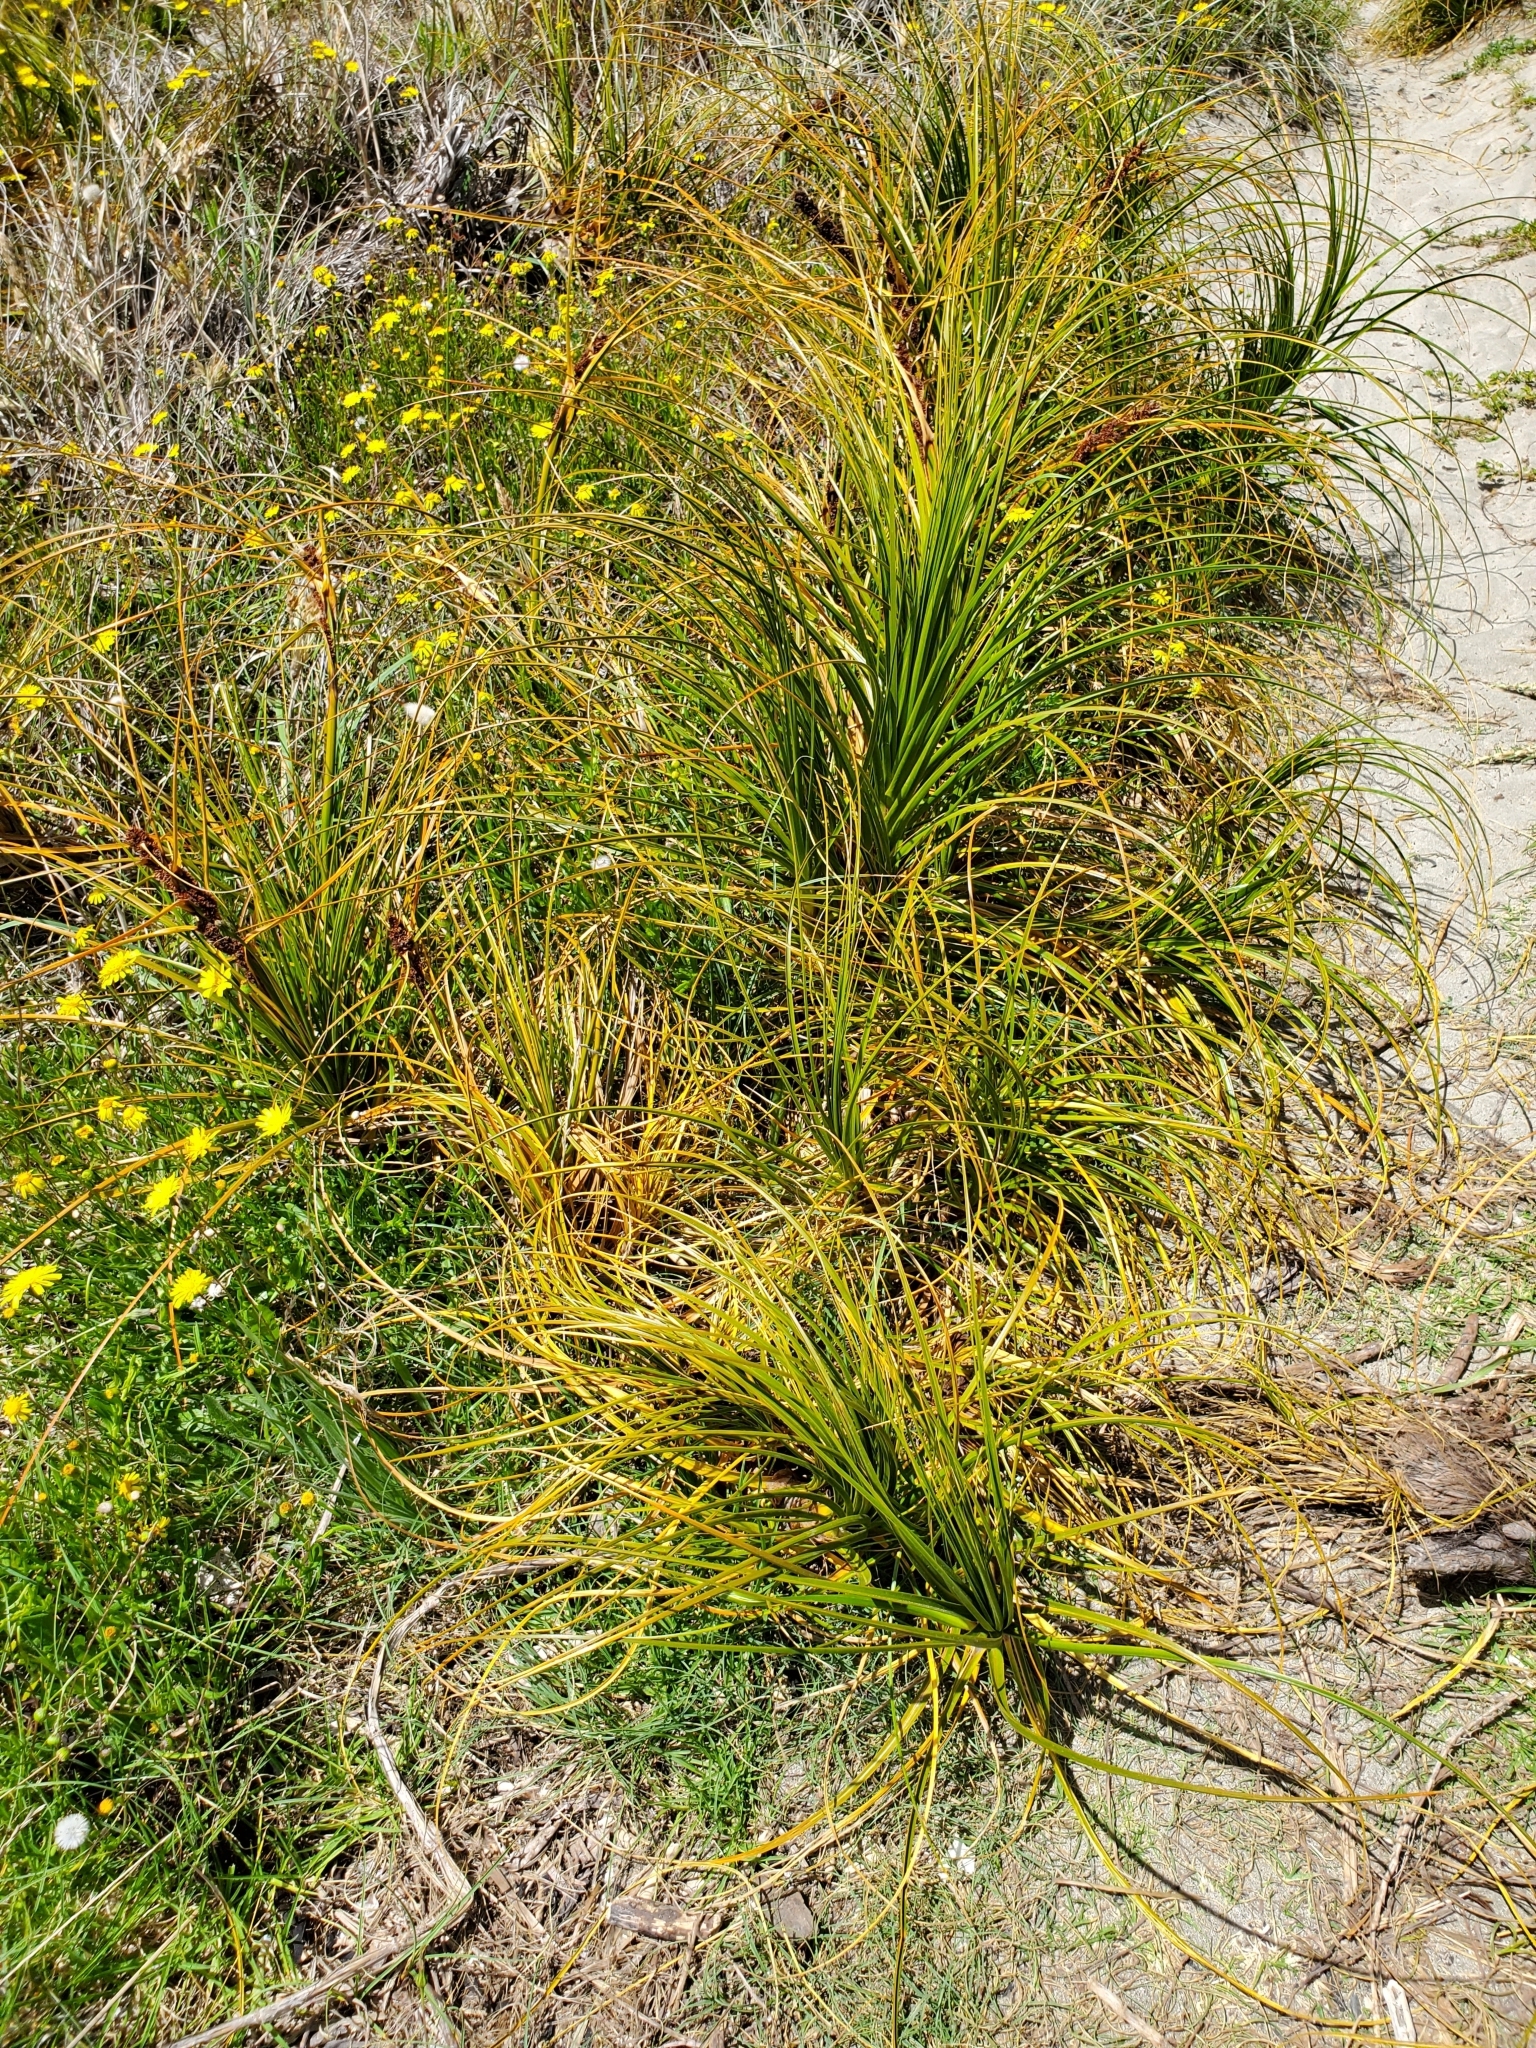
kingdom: Plantae
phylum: Tracheophyta
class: Liliopsida
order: Poales
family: Cyperaceae
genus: Ficinia
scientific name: Ficinia spiralis
